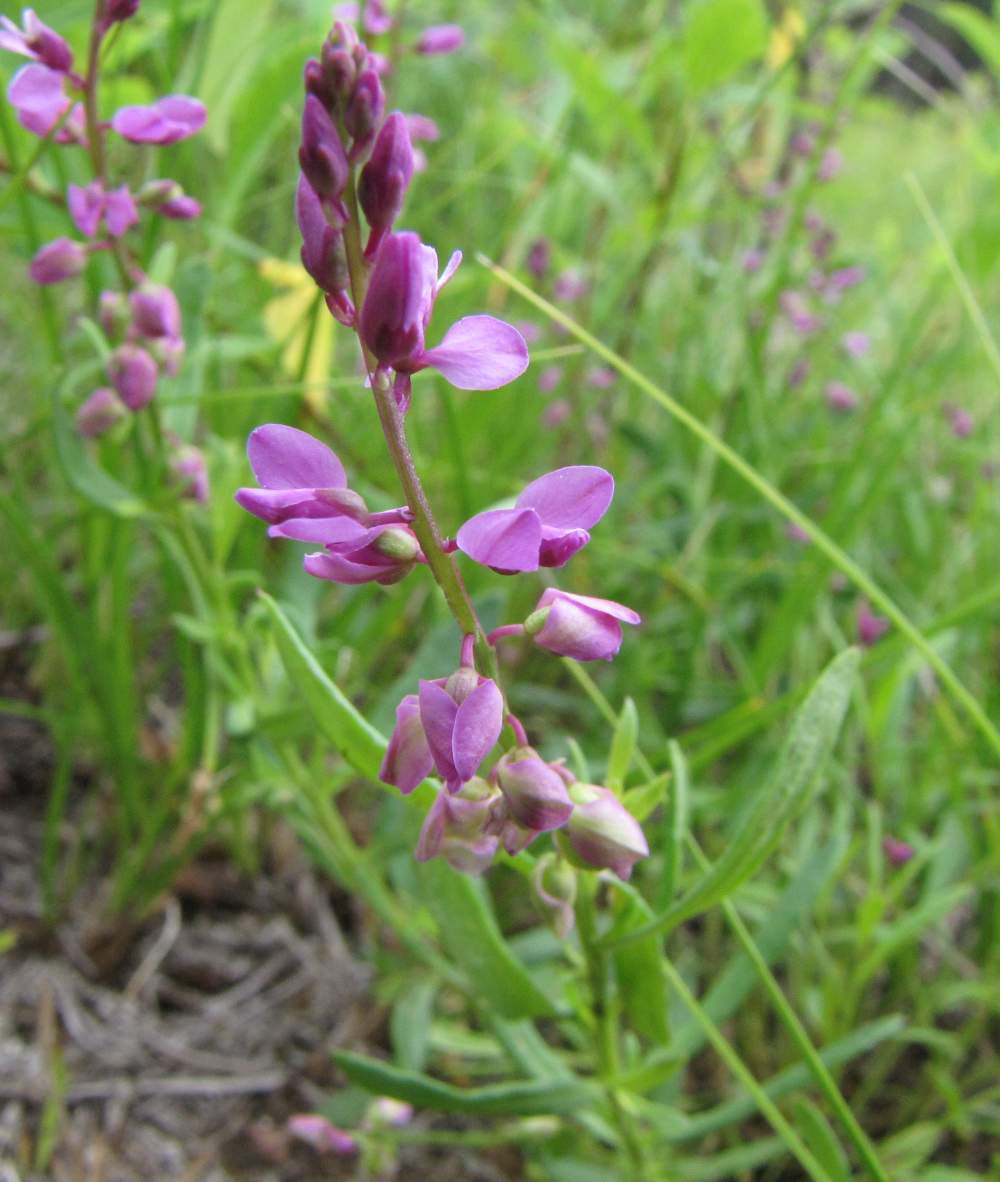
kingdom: Plantae
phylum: Tracheophyta
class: Magnoliopsida
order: Fabales
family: Polygalaceae
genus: Polygala
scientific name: Polygala polygama
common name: Bitter milkwort
